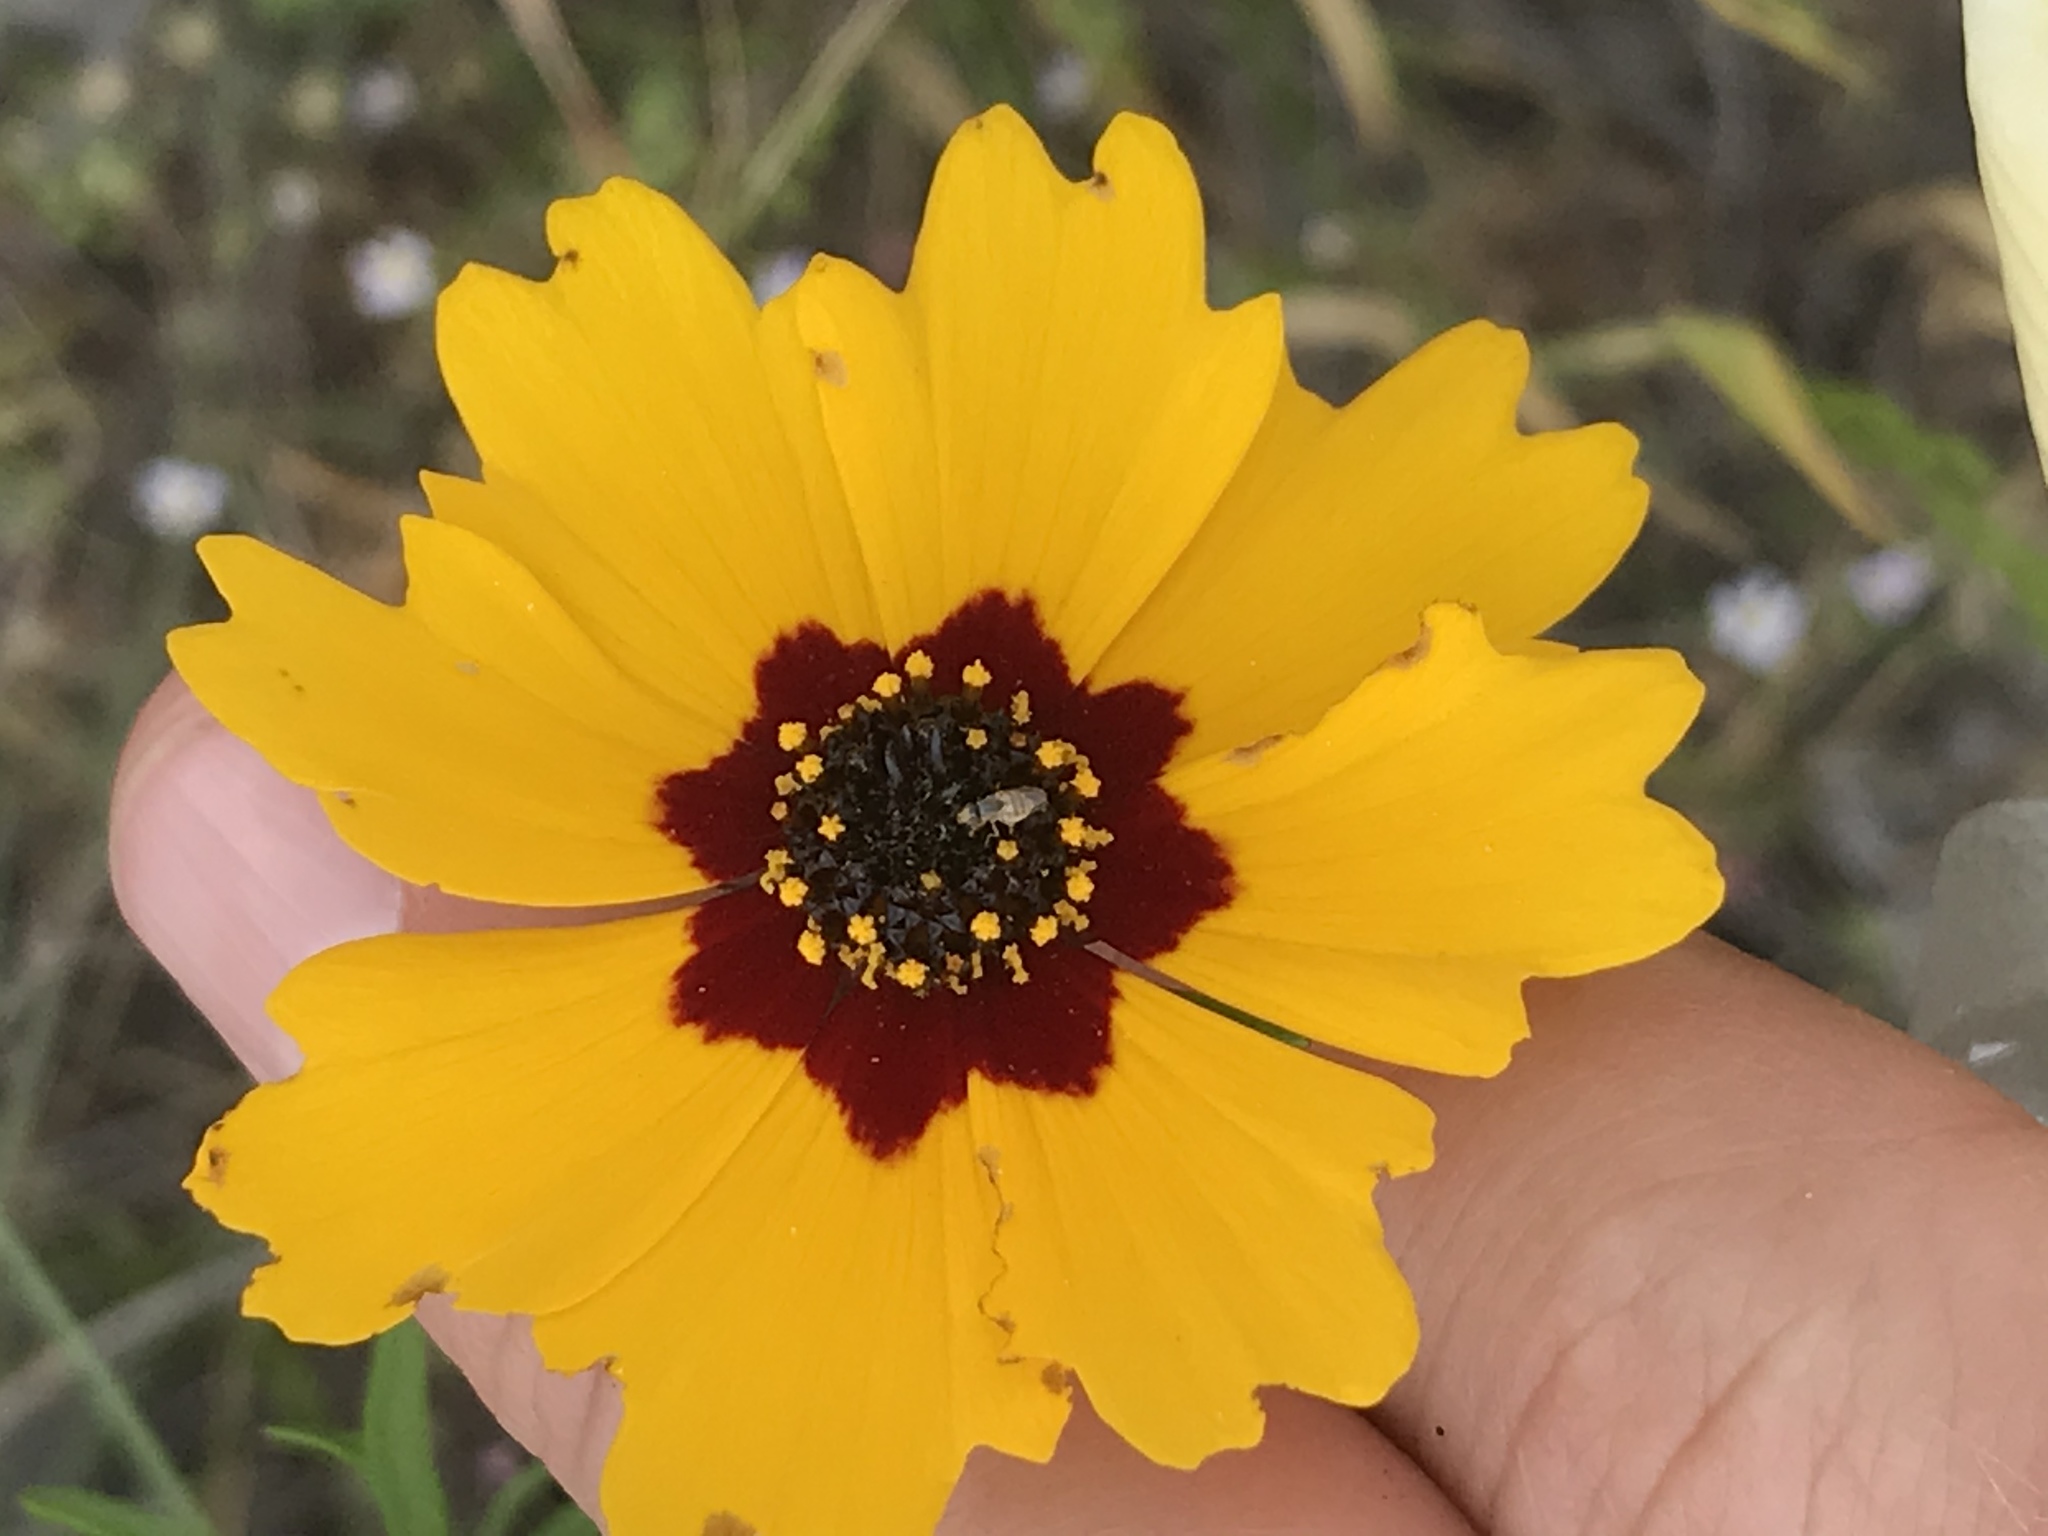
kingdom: Plantae
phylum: Tracheophyta
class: Magnoliopsida
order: Asterales
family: Asteraceae
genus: Coreopsis
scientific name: Coreopsis basalis
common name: Golden-mane coreopsis
